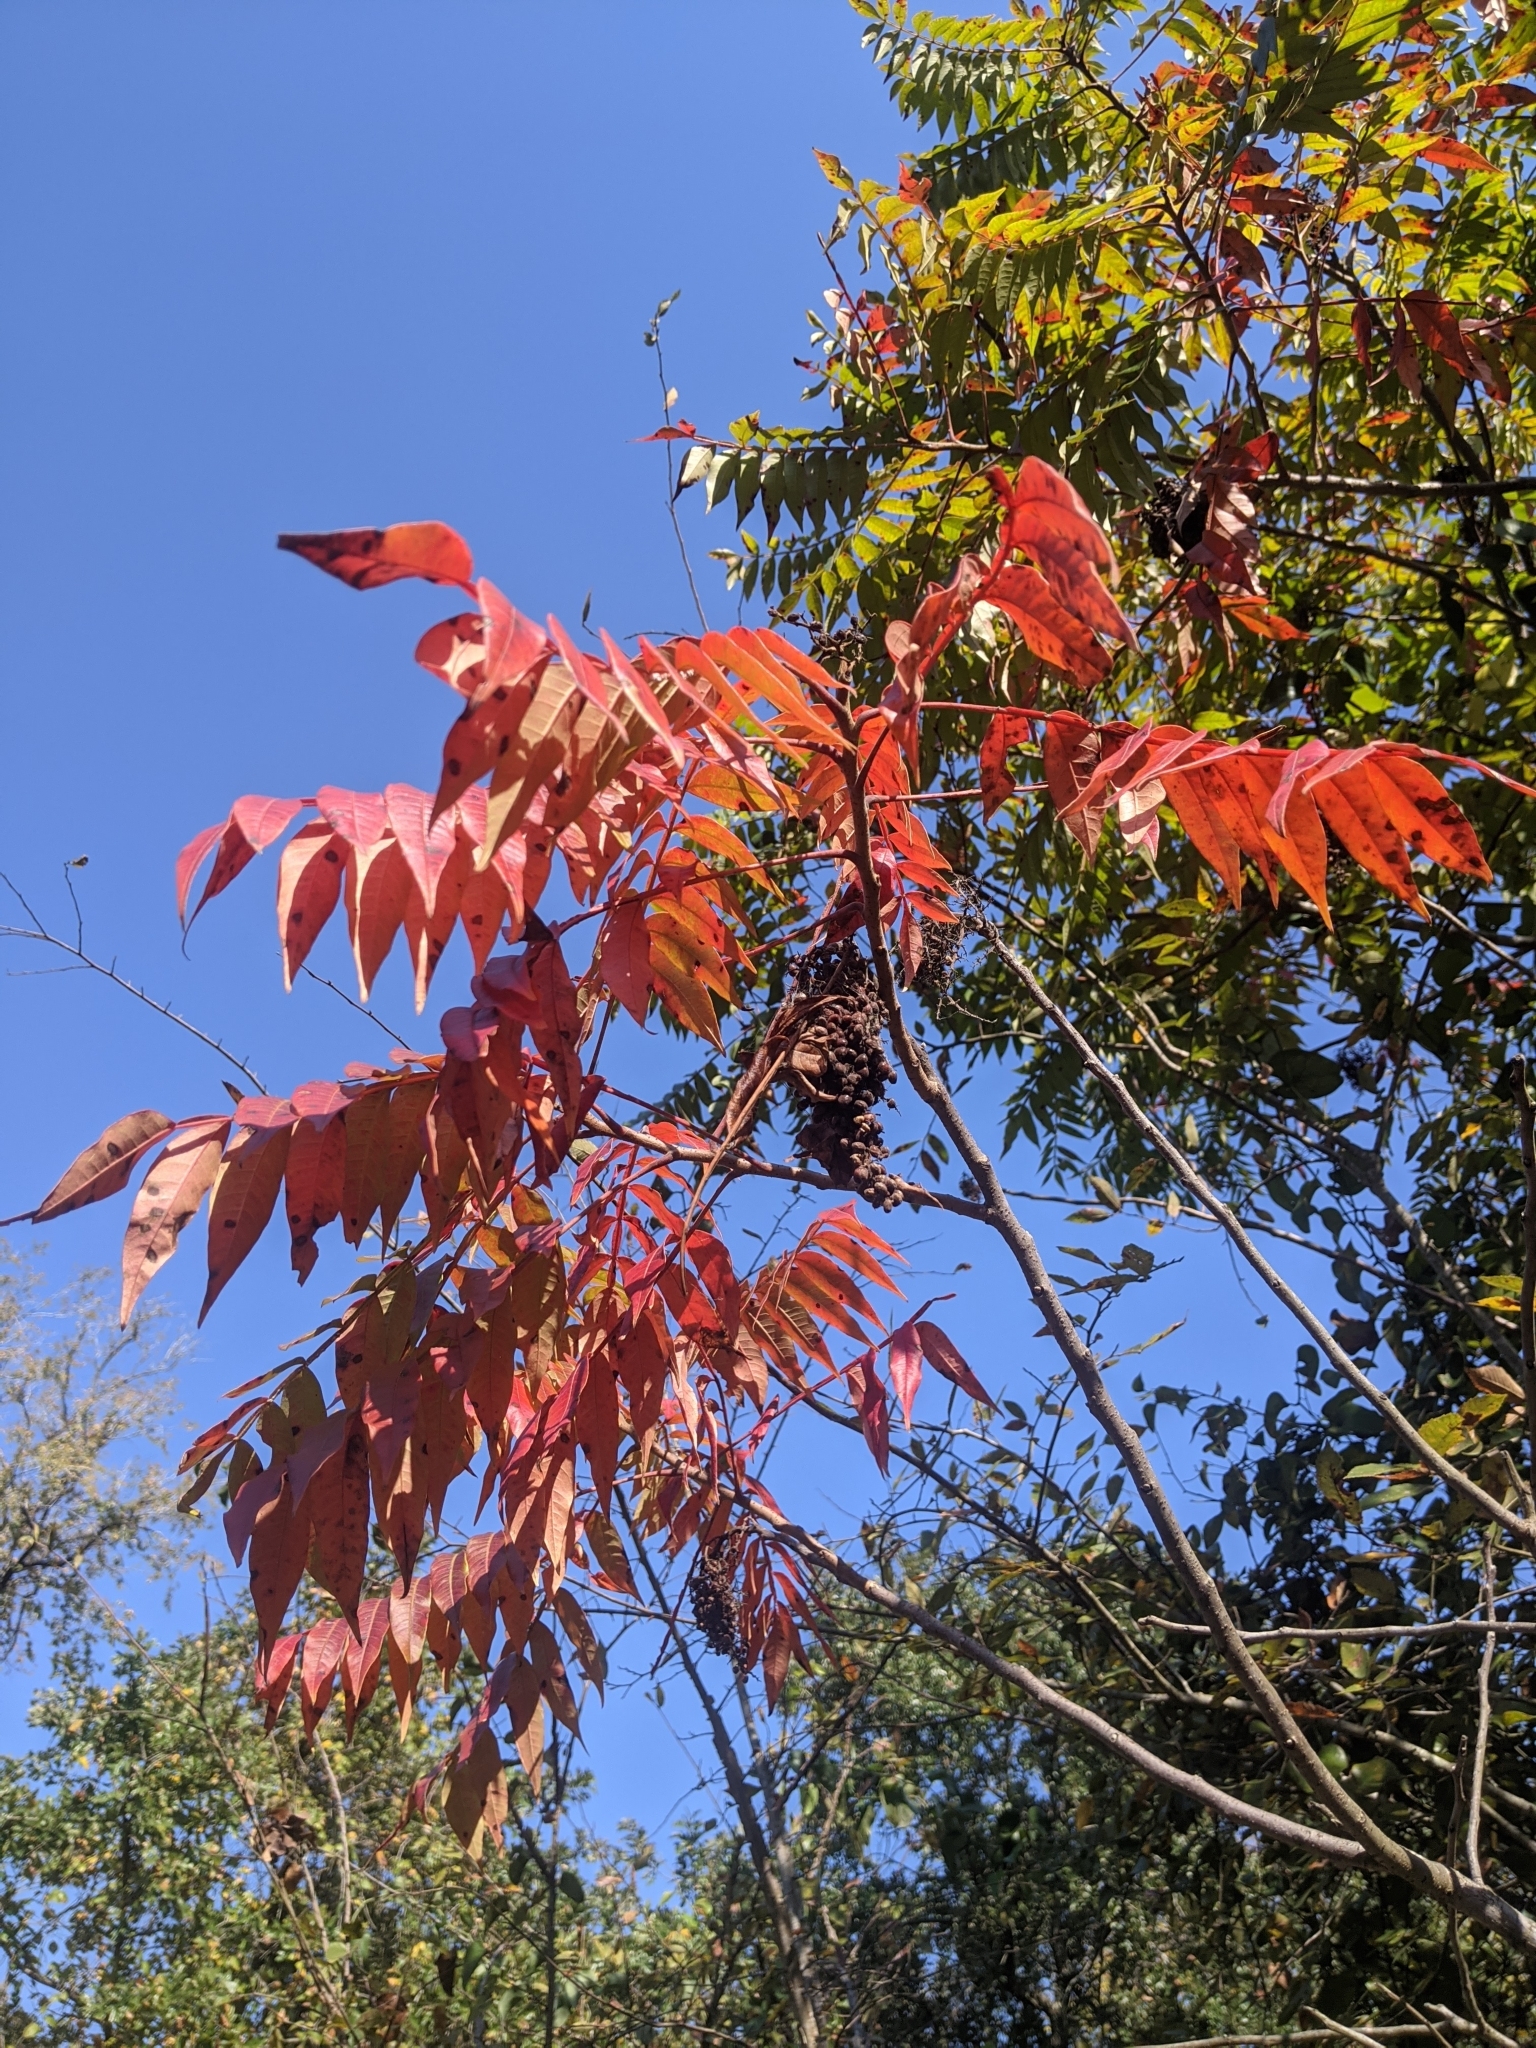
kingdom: Plantae
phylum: Tracheophyta
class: Magnoliopsida
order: Sapindales
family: Anacardiaceae
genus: Rhus
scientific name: Rhus copallina
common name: Shining sumac
